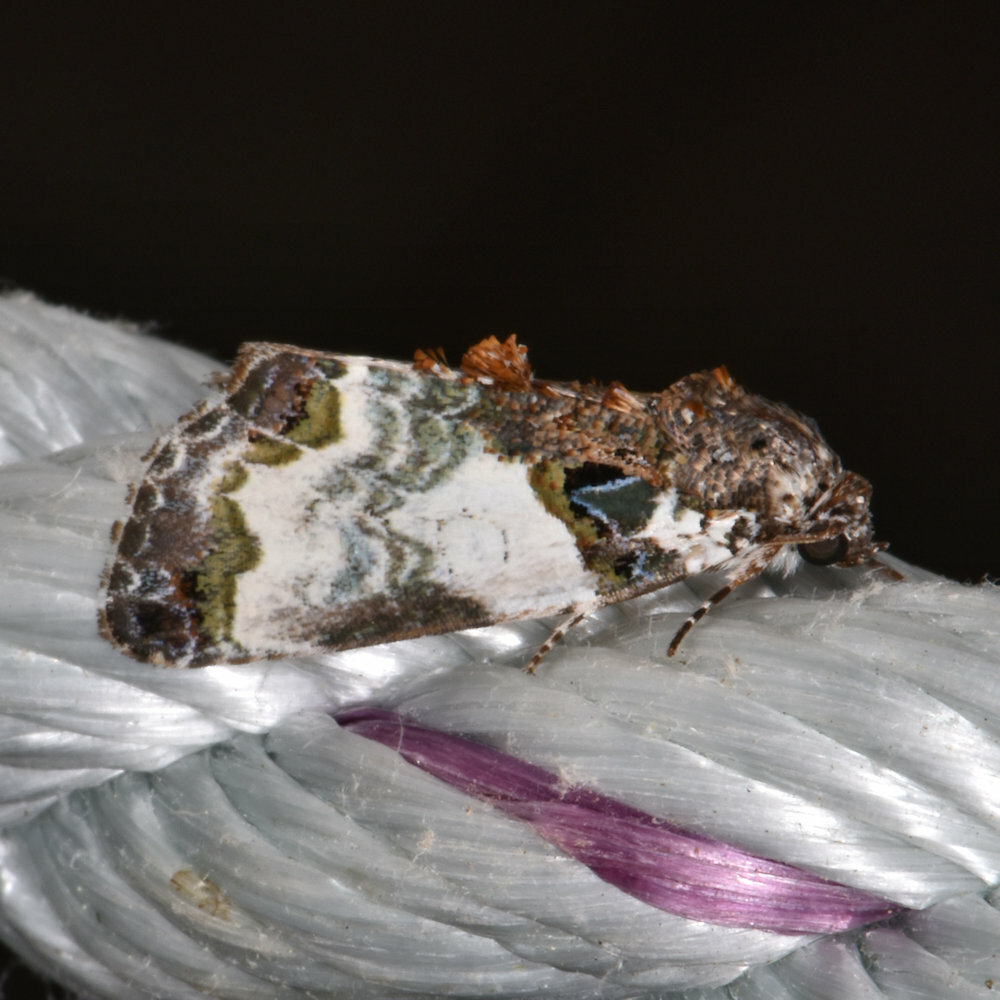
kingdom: Animalia
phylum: Arthropoda
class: Insecta
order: Lepidoptera
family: Noctuidae
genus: Cerma
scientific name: Cerma cerintha
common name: Tufted bird-dropping moth
